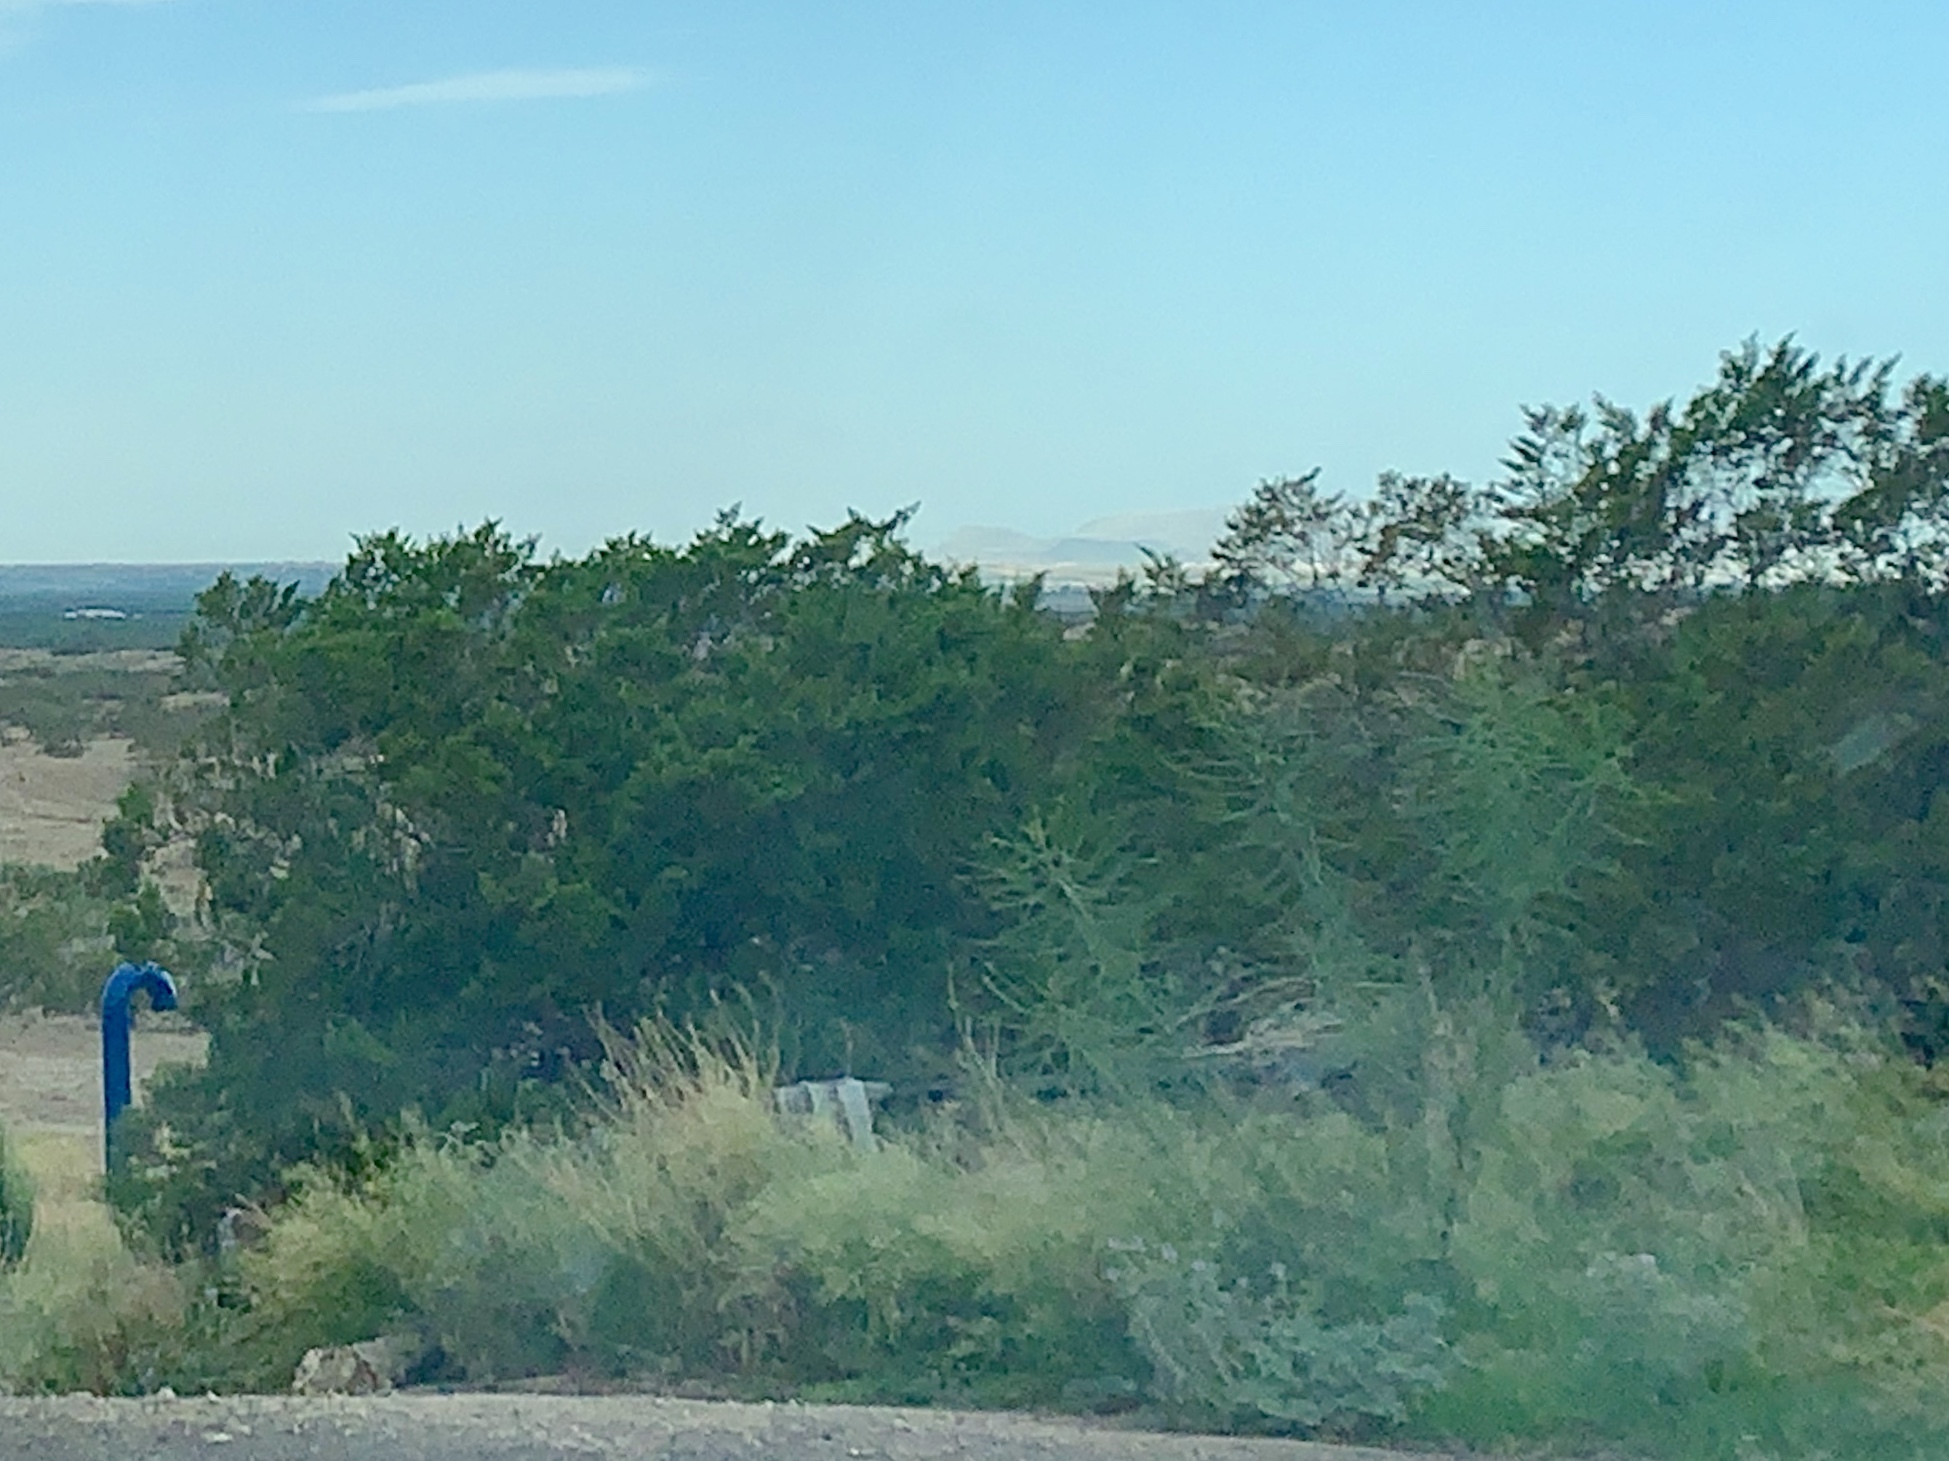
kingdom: Plantae
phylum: Tracheophyta
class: Magnoliopsida
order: Zygophyllales
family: Zygophyllaceae
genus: Larrea
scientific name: Larrea tridentata
